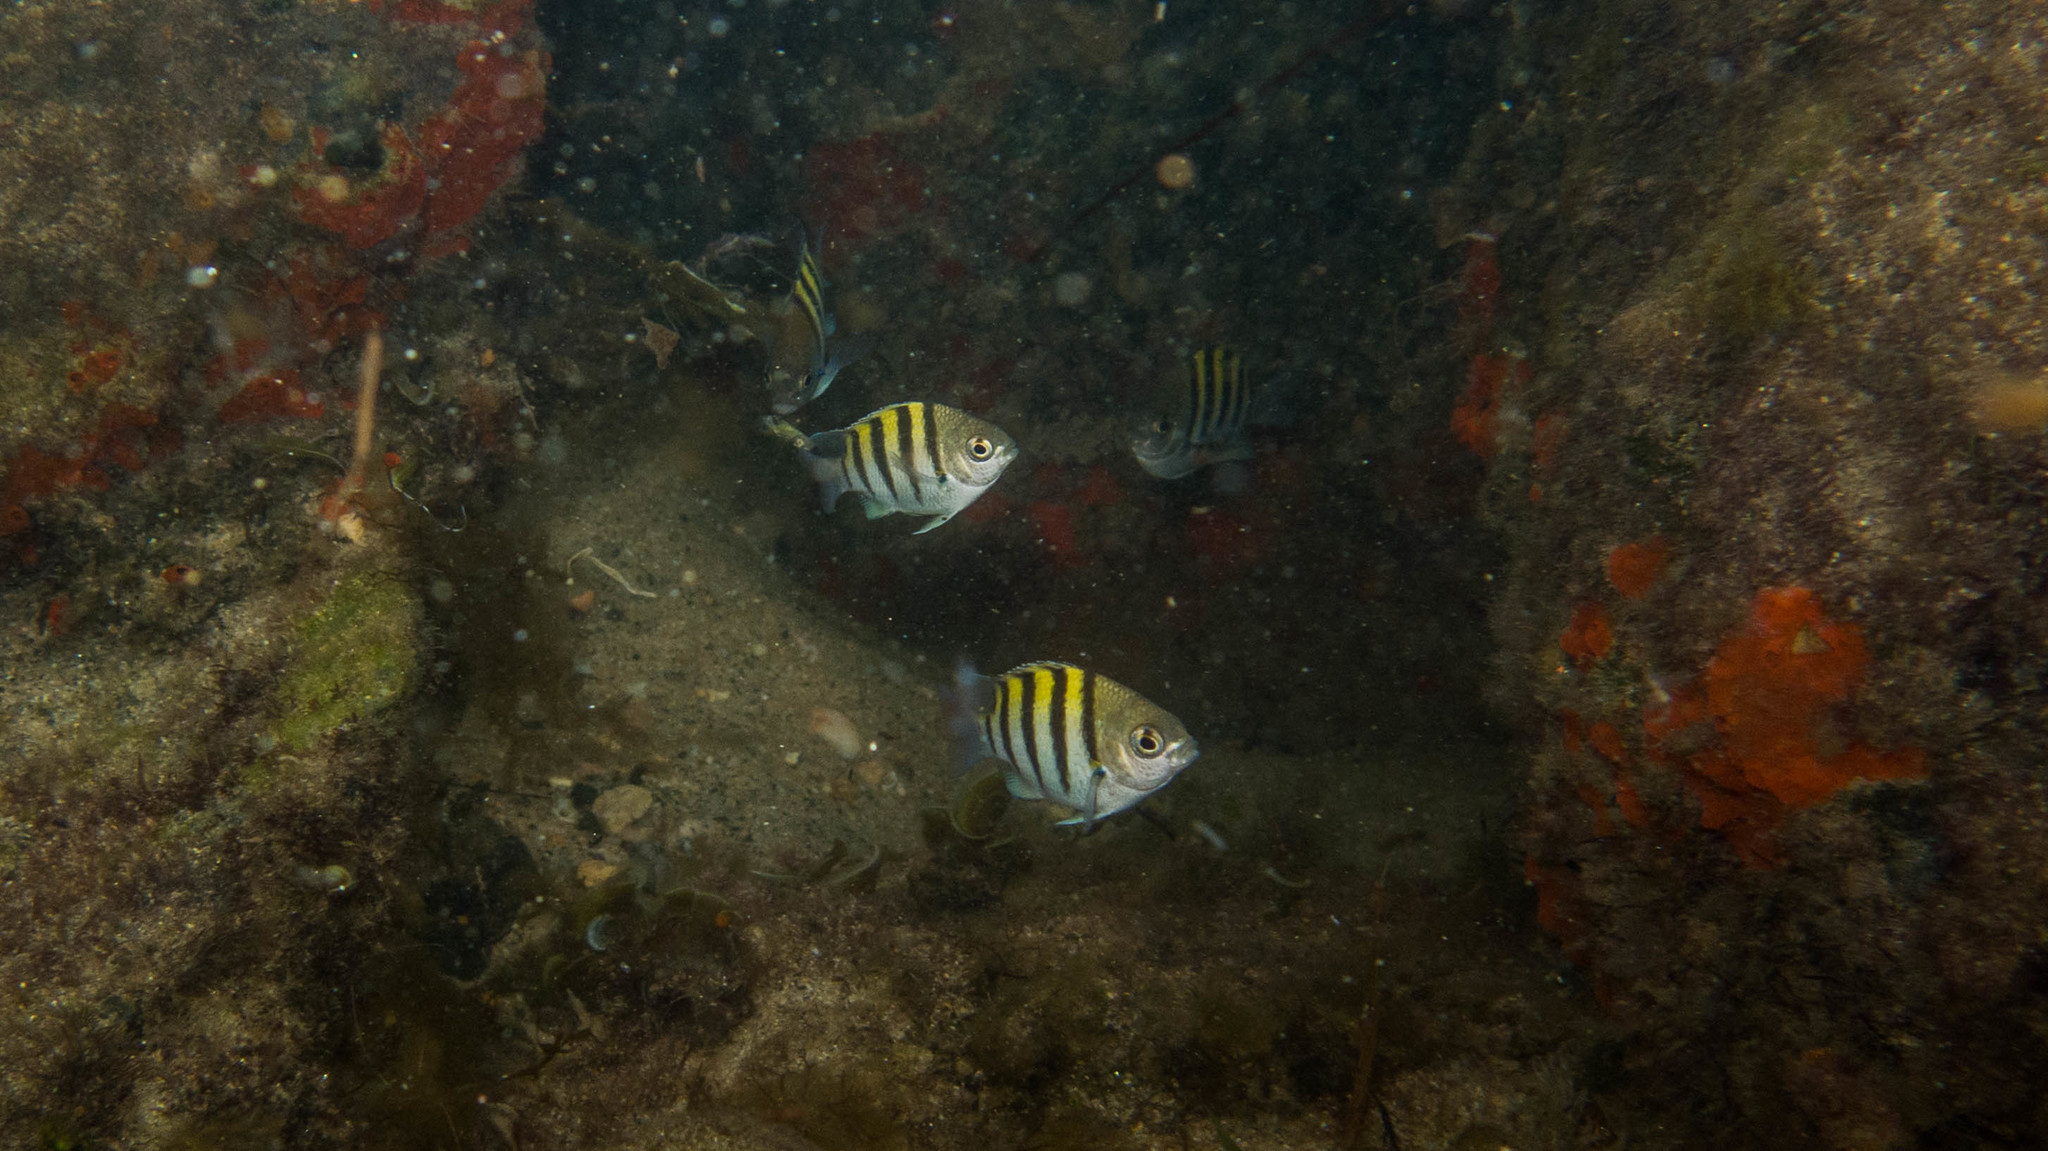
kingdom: Animalia
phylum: Chordata
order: Perciformes
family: Pomacentridae
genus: Abudefduf
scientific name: Abudefduf saxatilis
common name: Sergeant major
